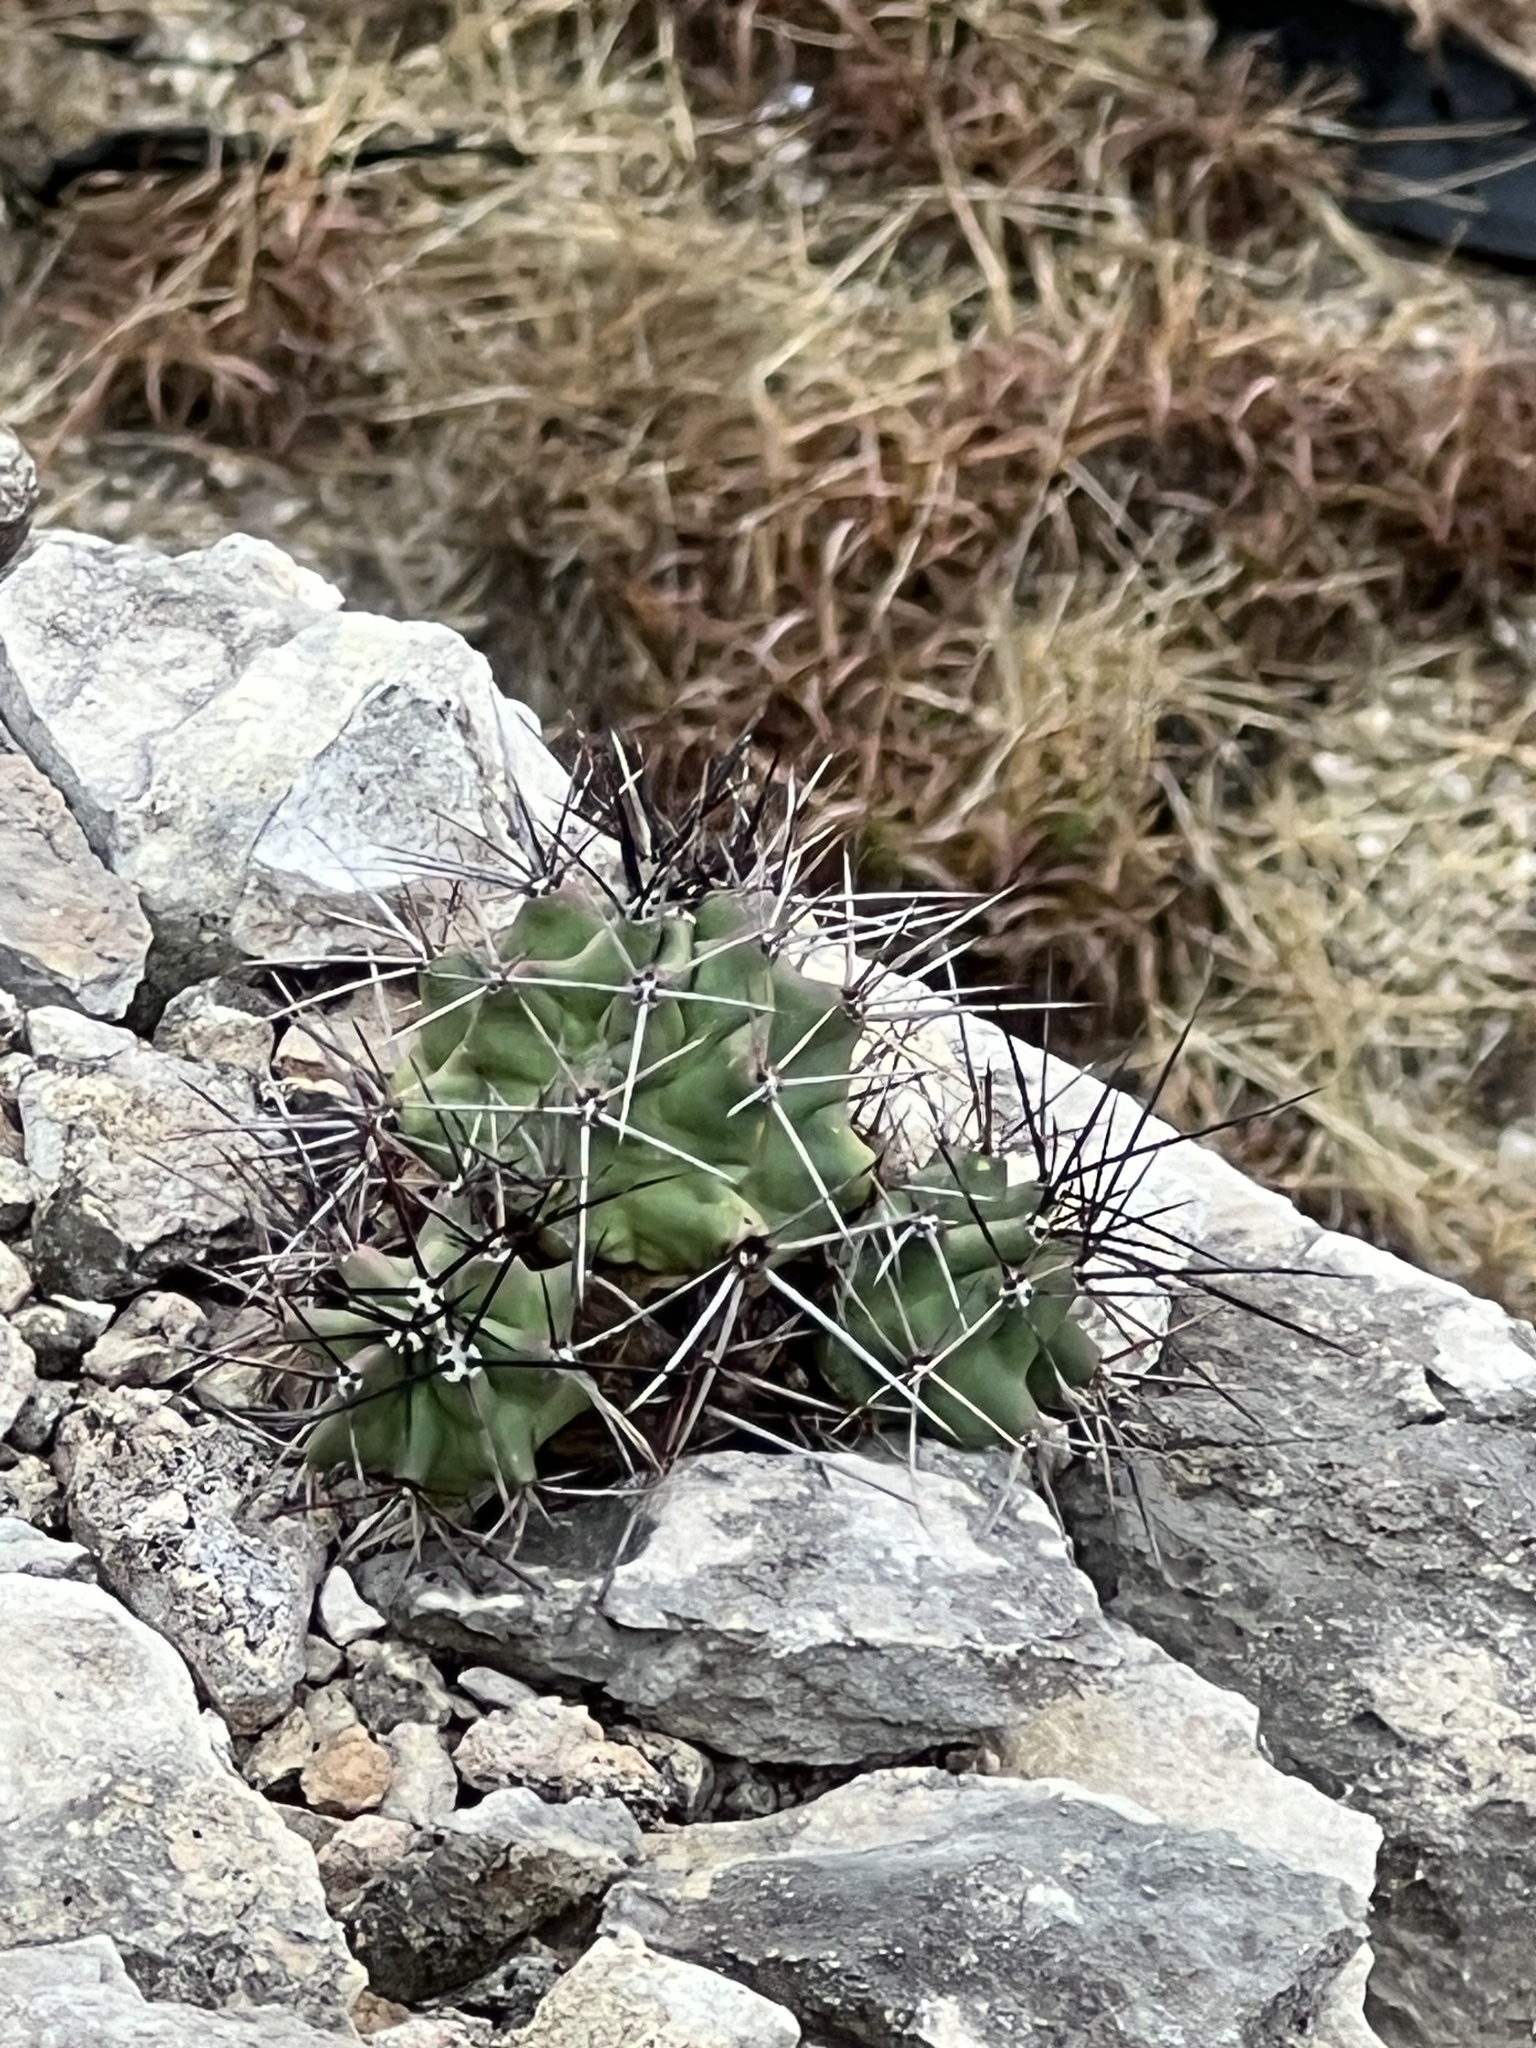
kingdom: Plantae
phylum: Tracheophyta
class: Magnoliopsida
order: Caryophyllales
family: Cactaceae
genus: Echinocereus
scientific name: Echinocereus coccineus
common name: Scarlet hedgehog cactus
